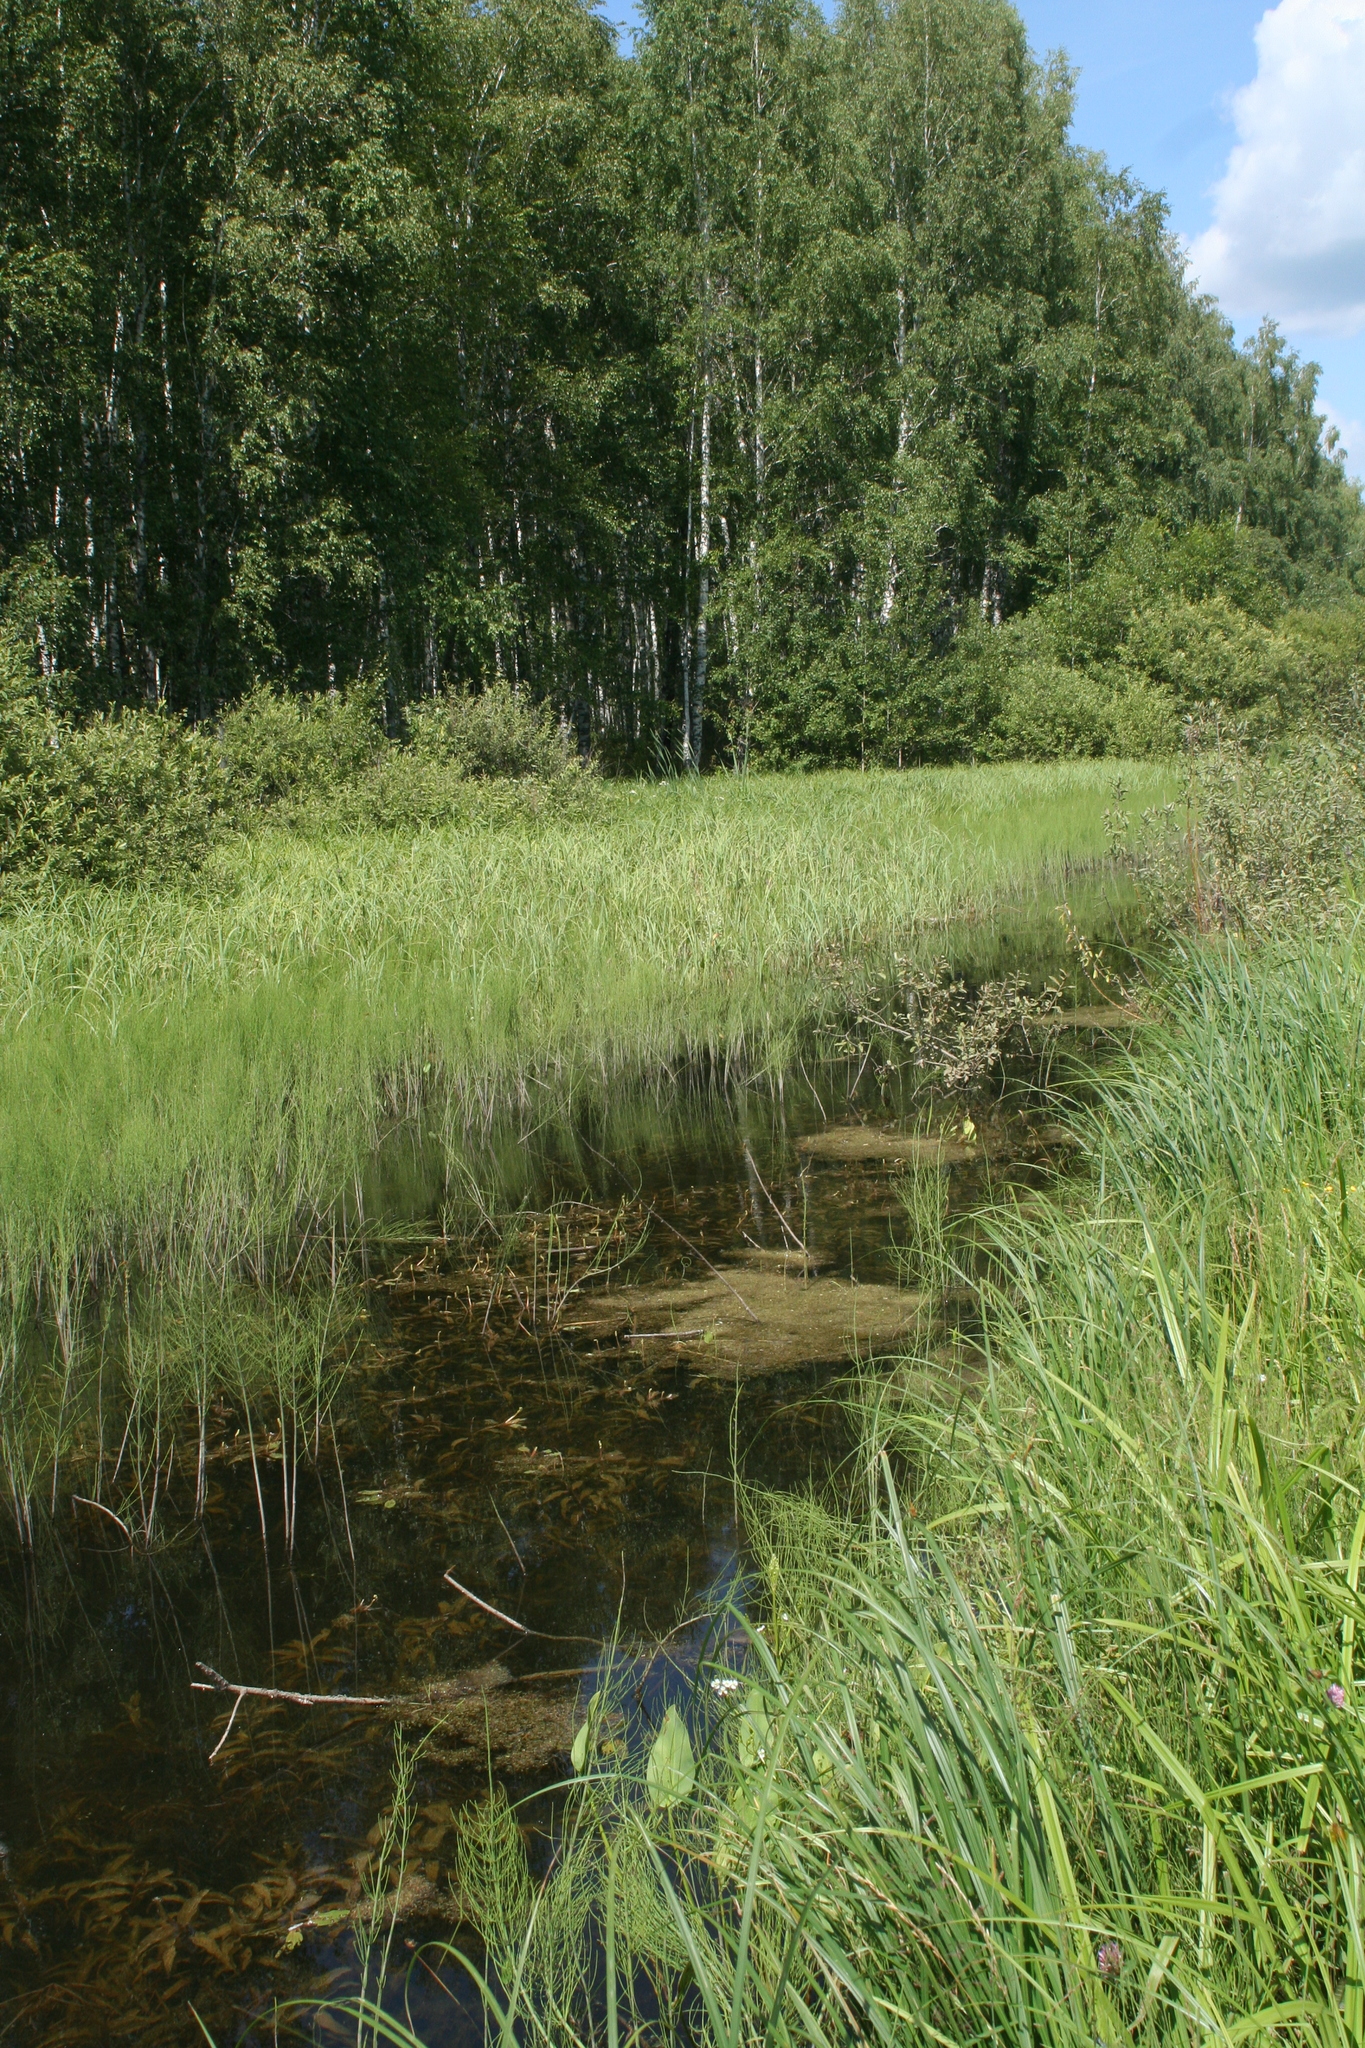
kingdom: Plantae
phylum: Tracheophyta
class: Polypodiopsida
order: Equisetales
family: Equisetaceae
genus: Equisetum
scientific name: Equisetum fluviatile
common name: Water horsetail
